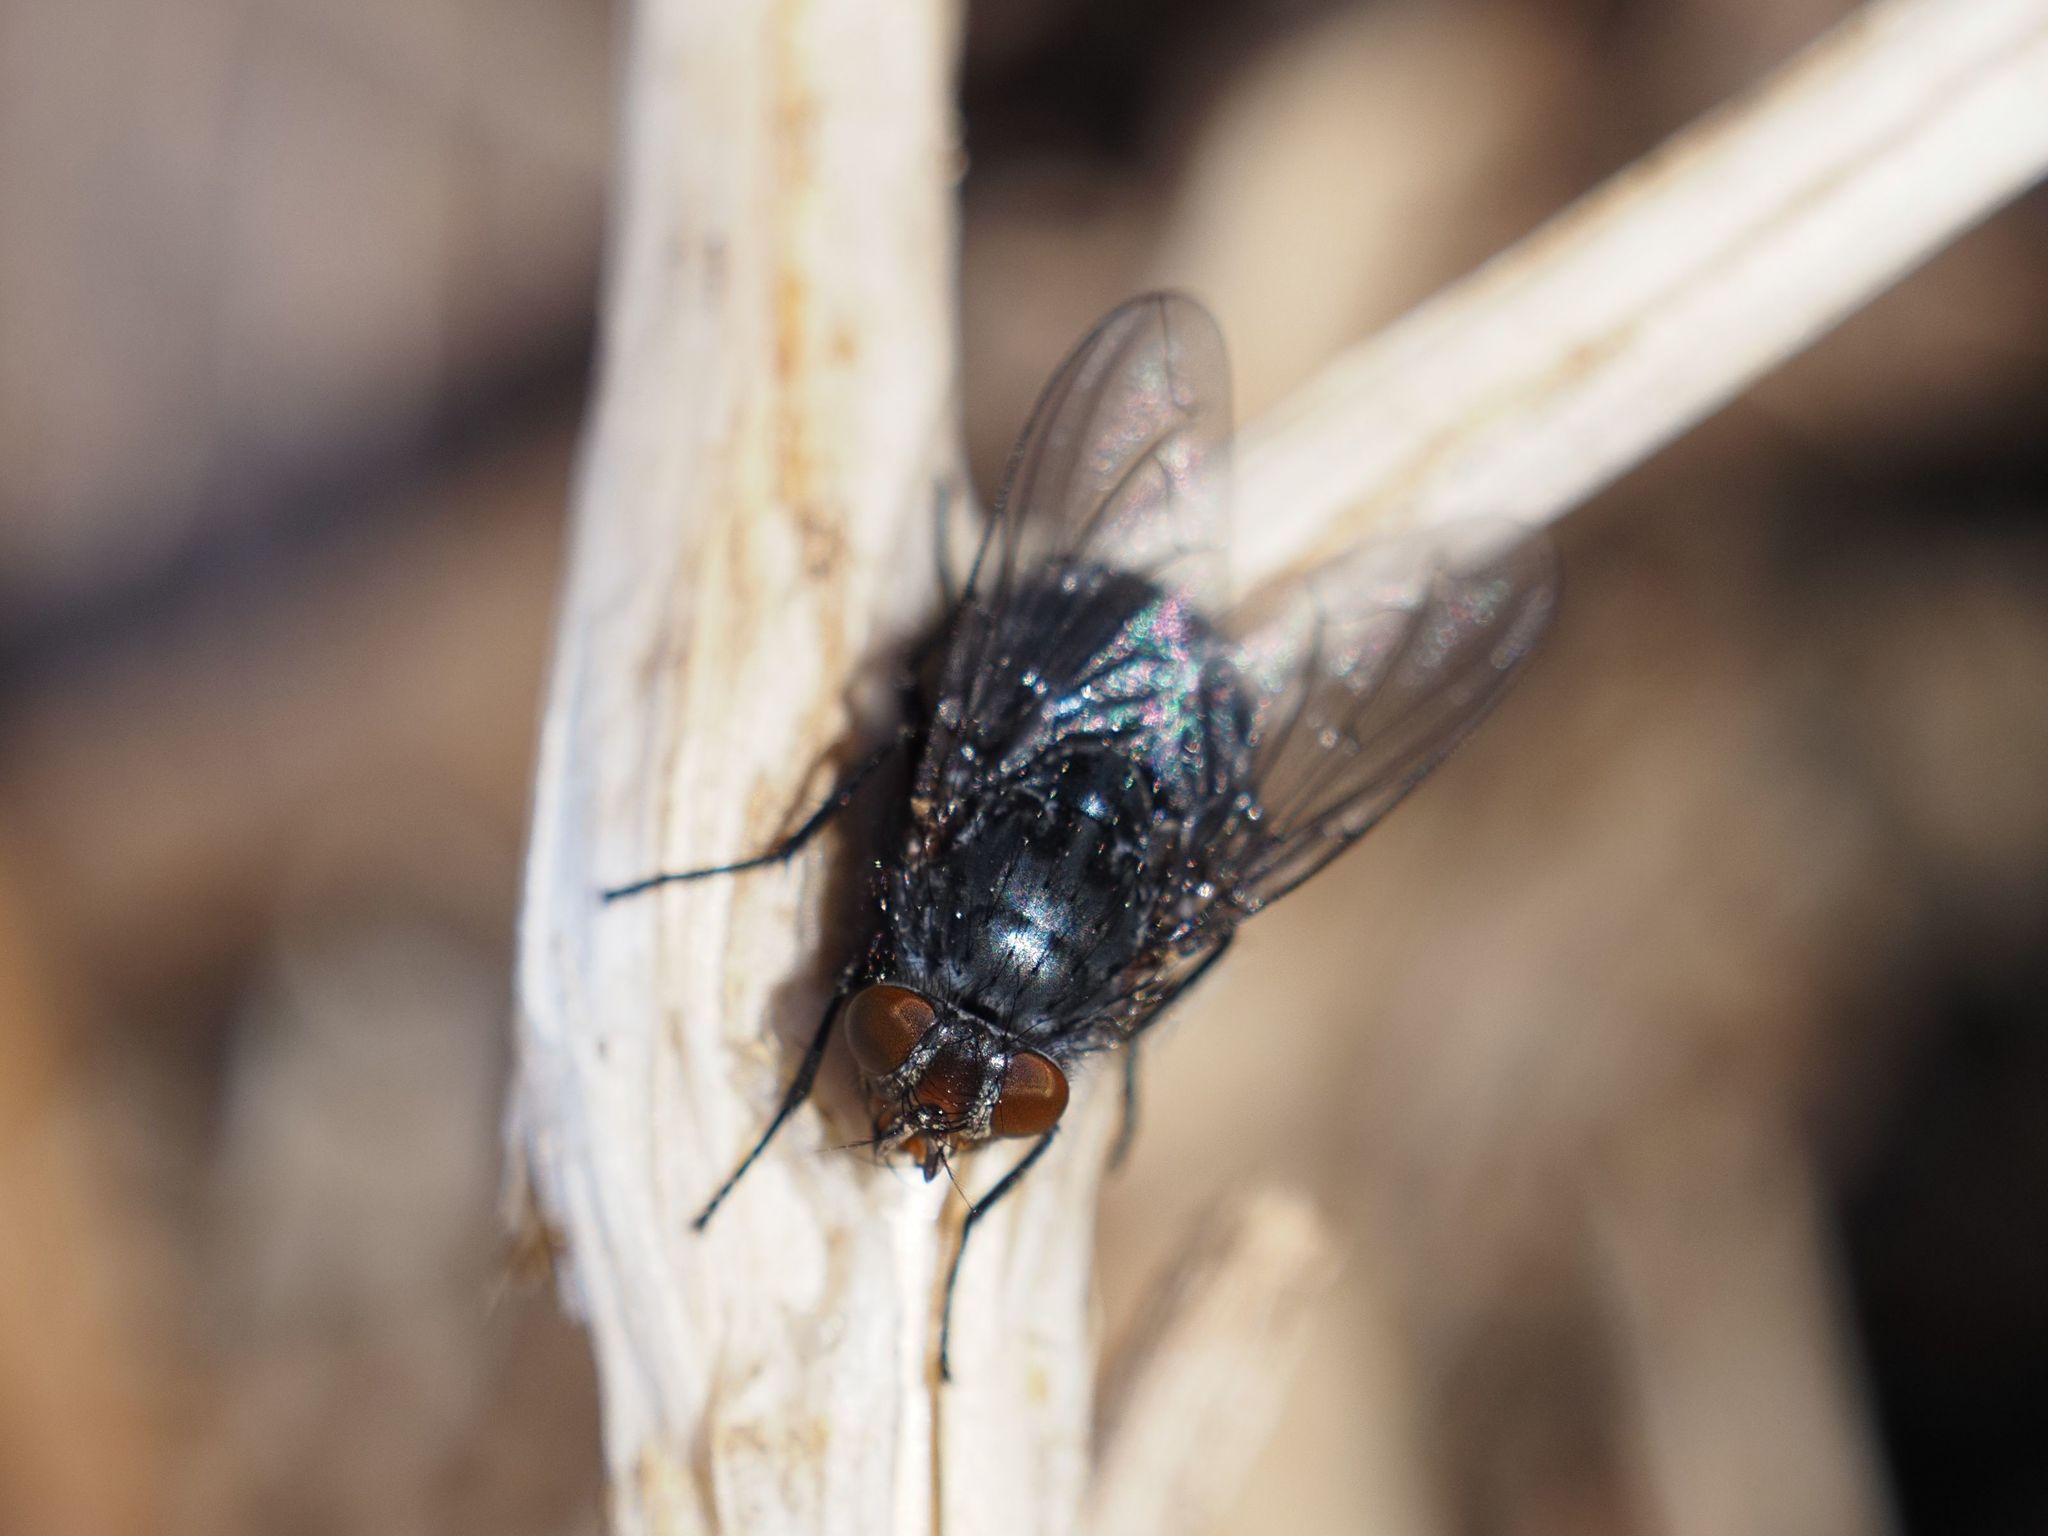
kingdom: Animalia
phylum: Arthropoda
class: Insecta
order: Diptera
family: Calliphoridae
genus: Calliphora
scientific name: Calliphora vicina
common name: Common blow flie
